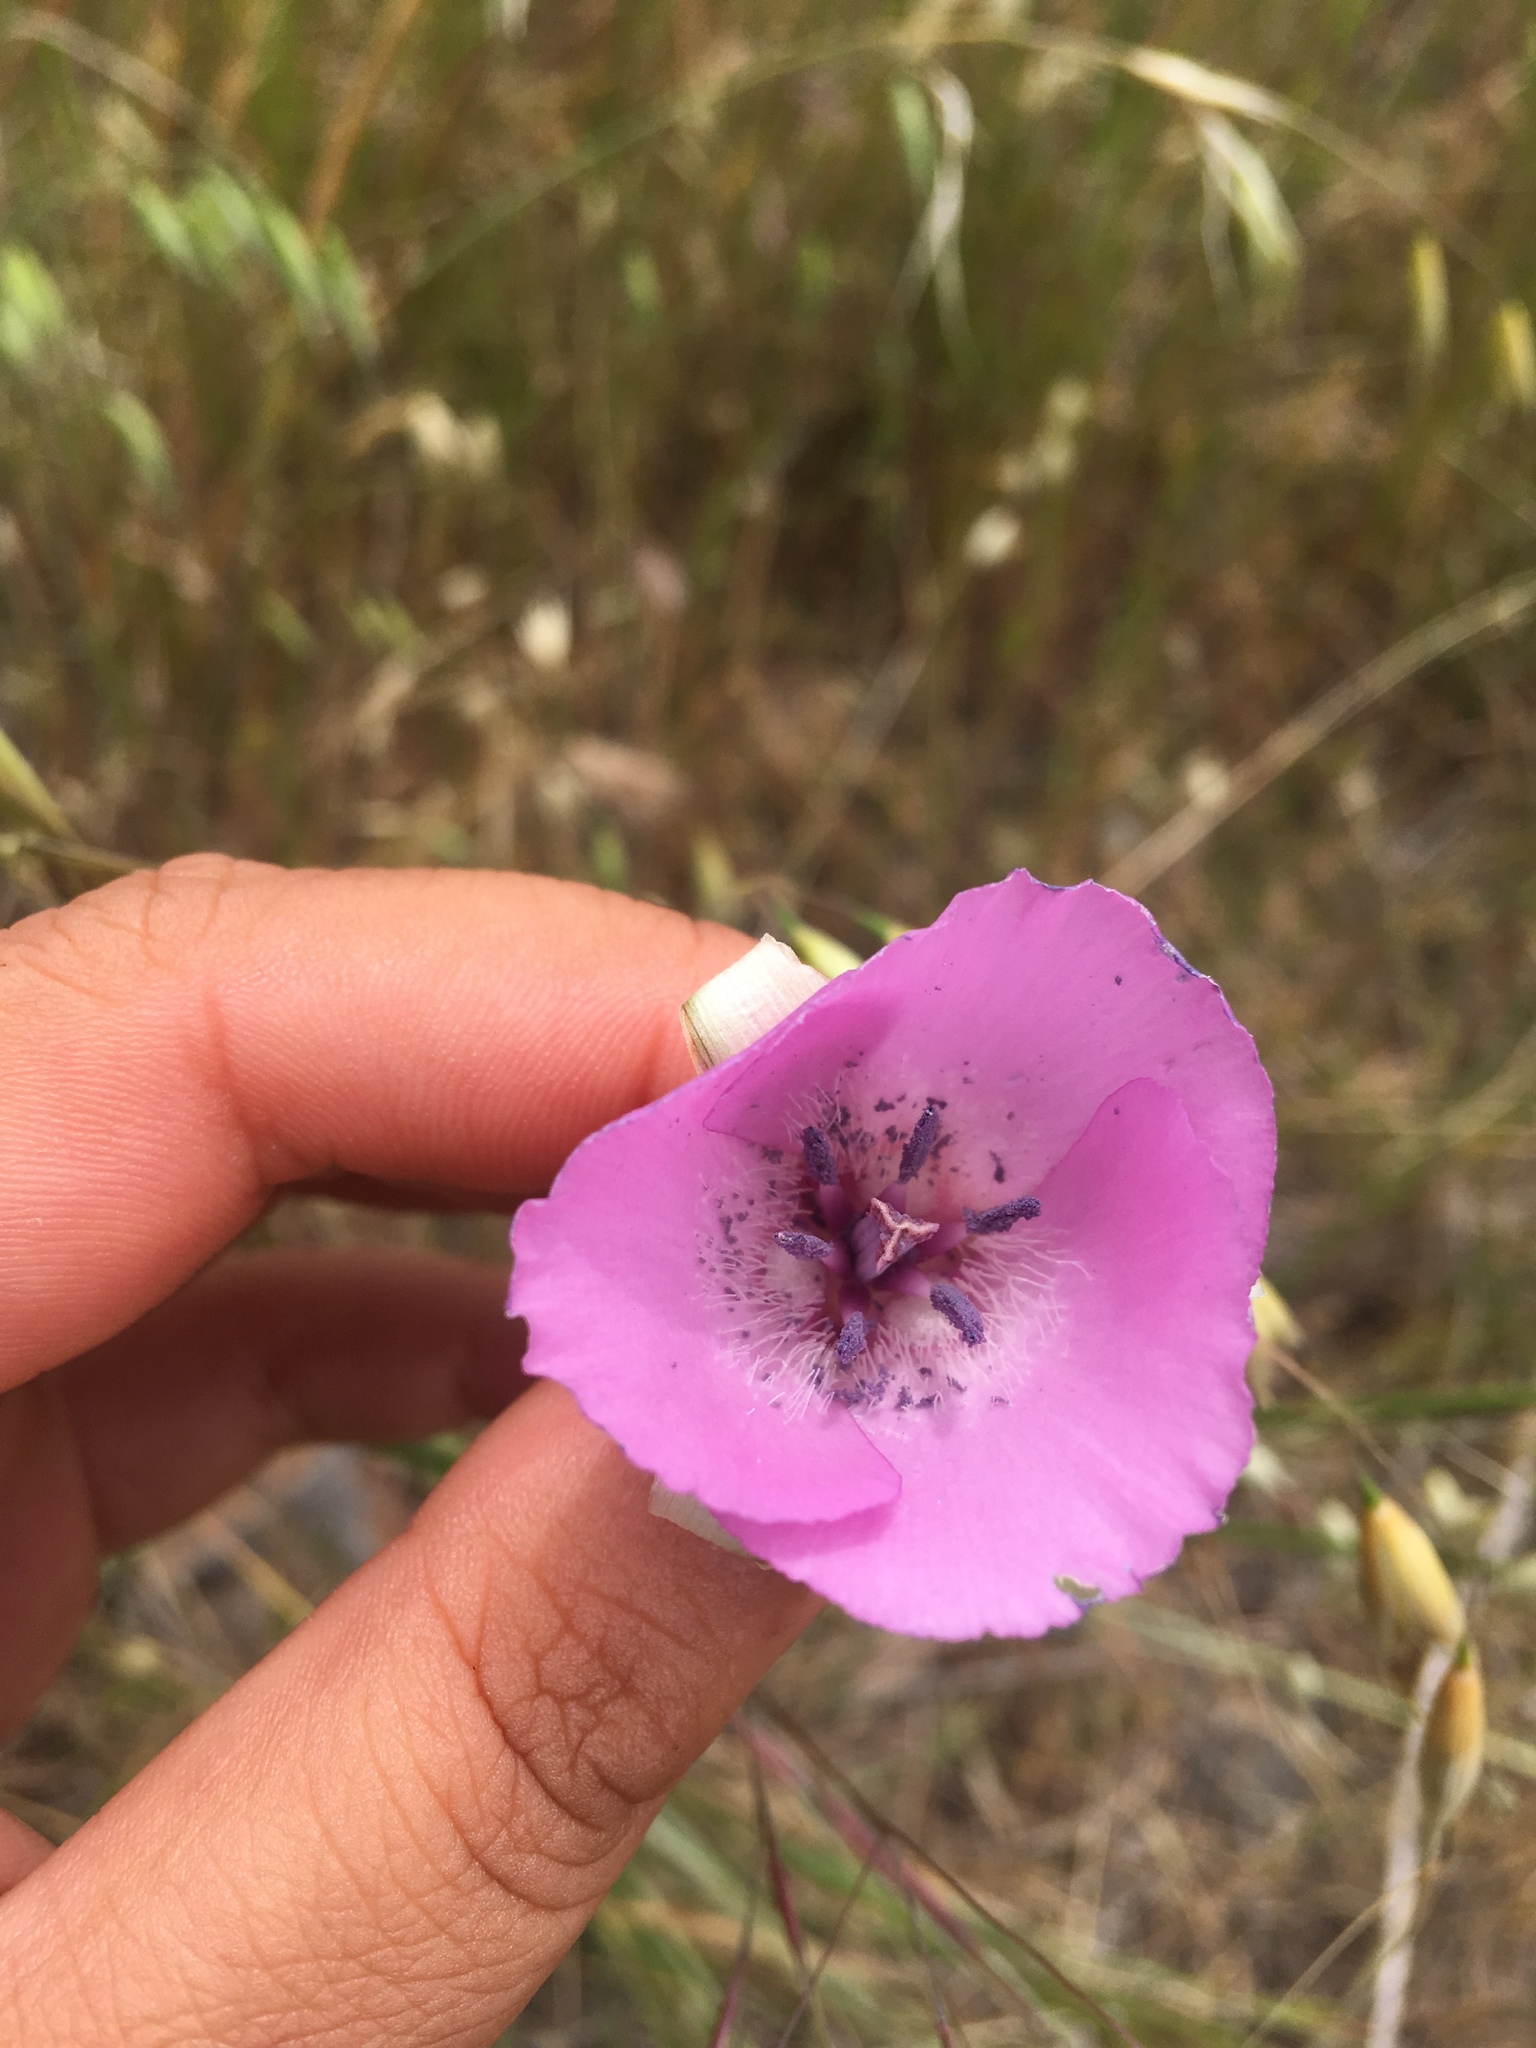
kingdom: Plantae
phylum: Tracheophyta
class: Liliopsida
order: Liliales
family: Liliaceae
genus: Calochortus
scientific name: Calochortus splendens
